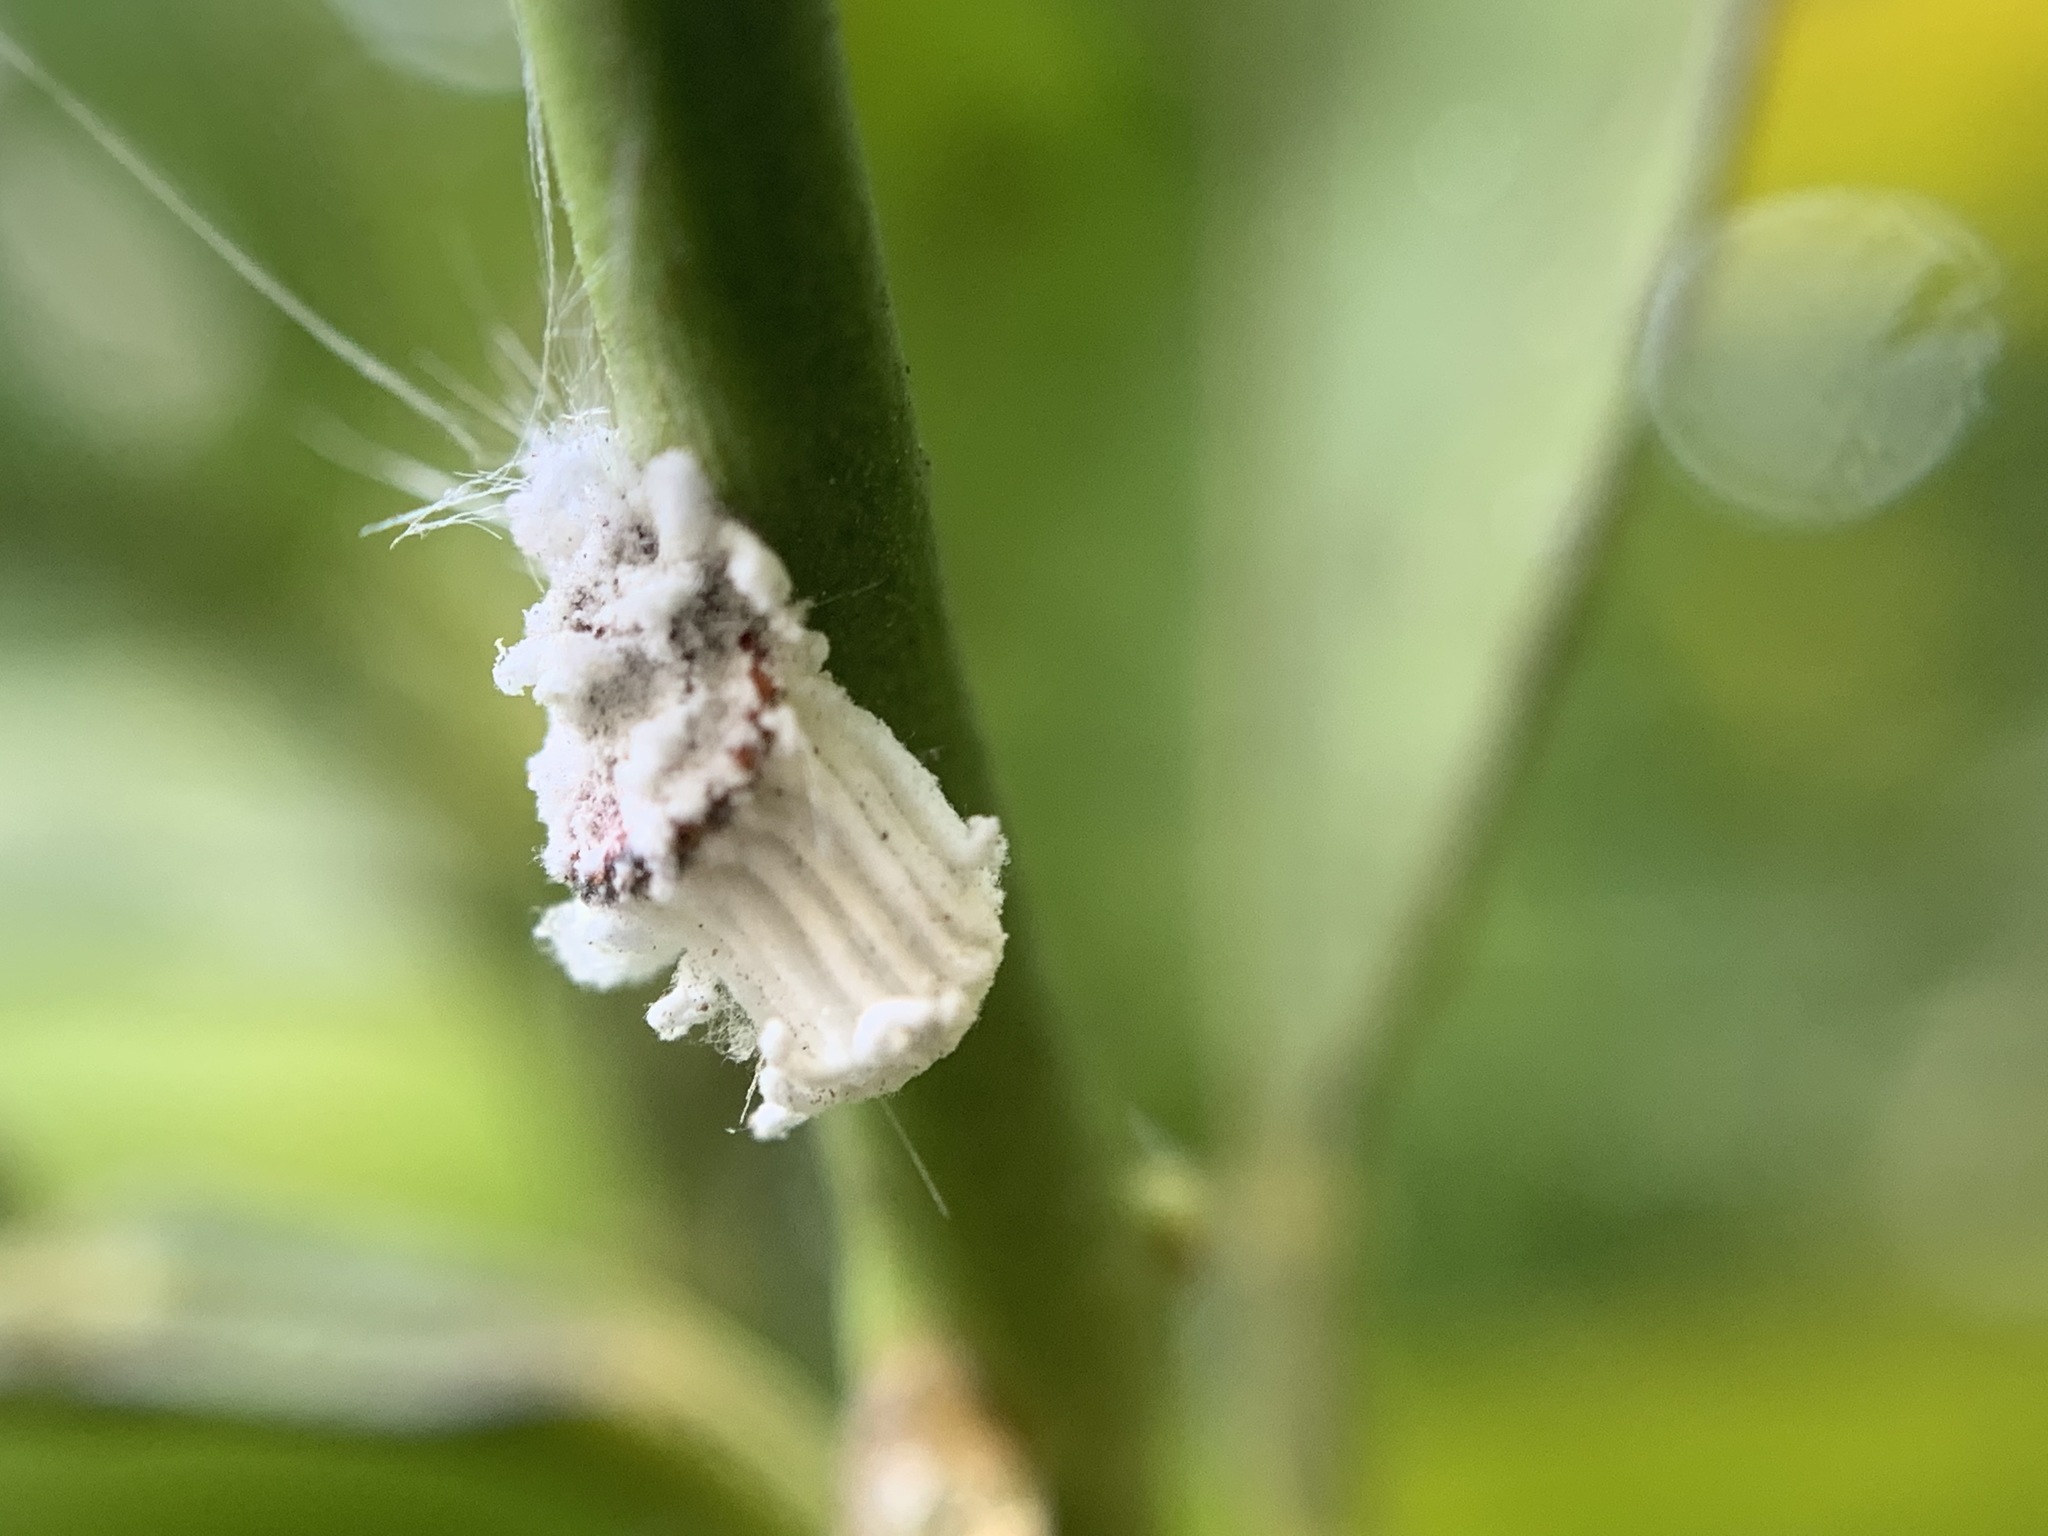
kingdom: Animalia
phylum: Arthropoda
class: Insecta
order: Hemiptera
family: Margarodidae
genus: Icerya
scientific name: Icerya purchasi
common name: Cottony cushion scale
